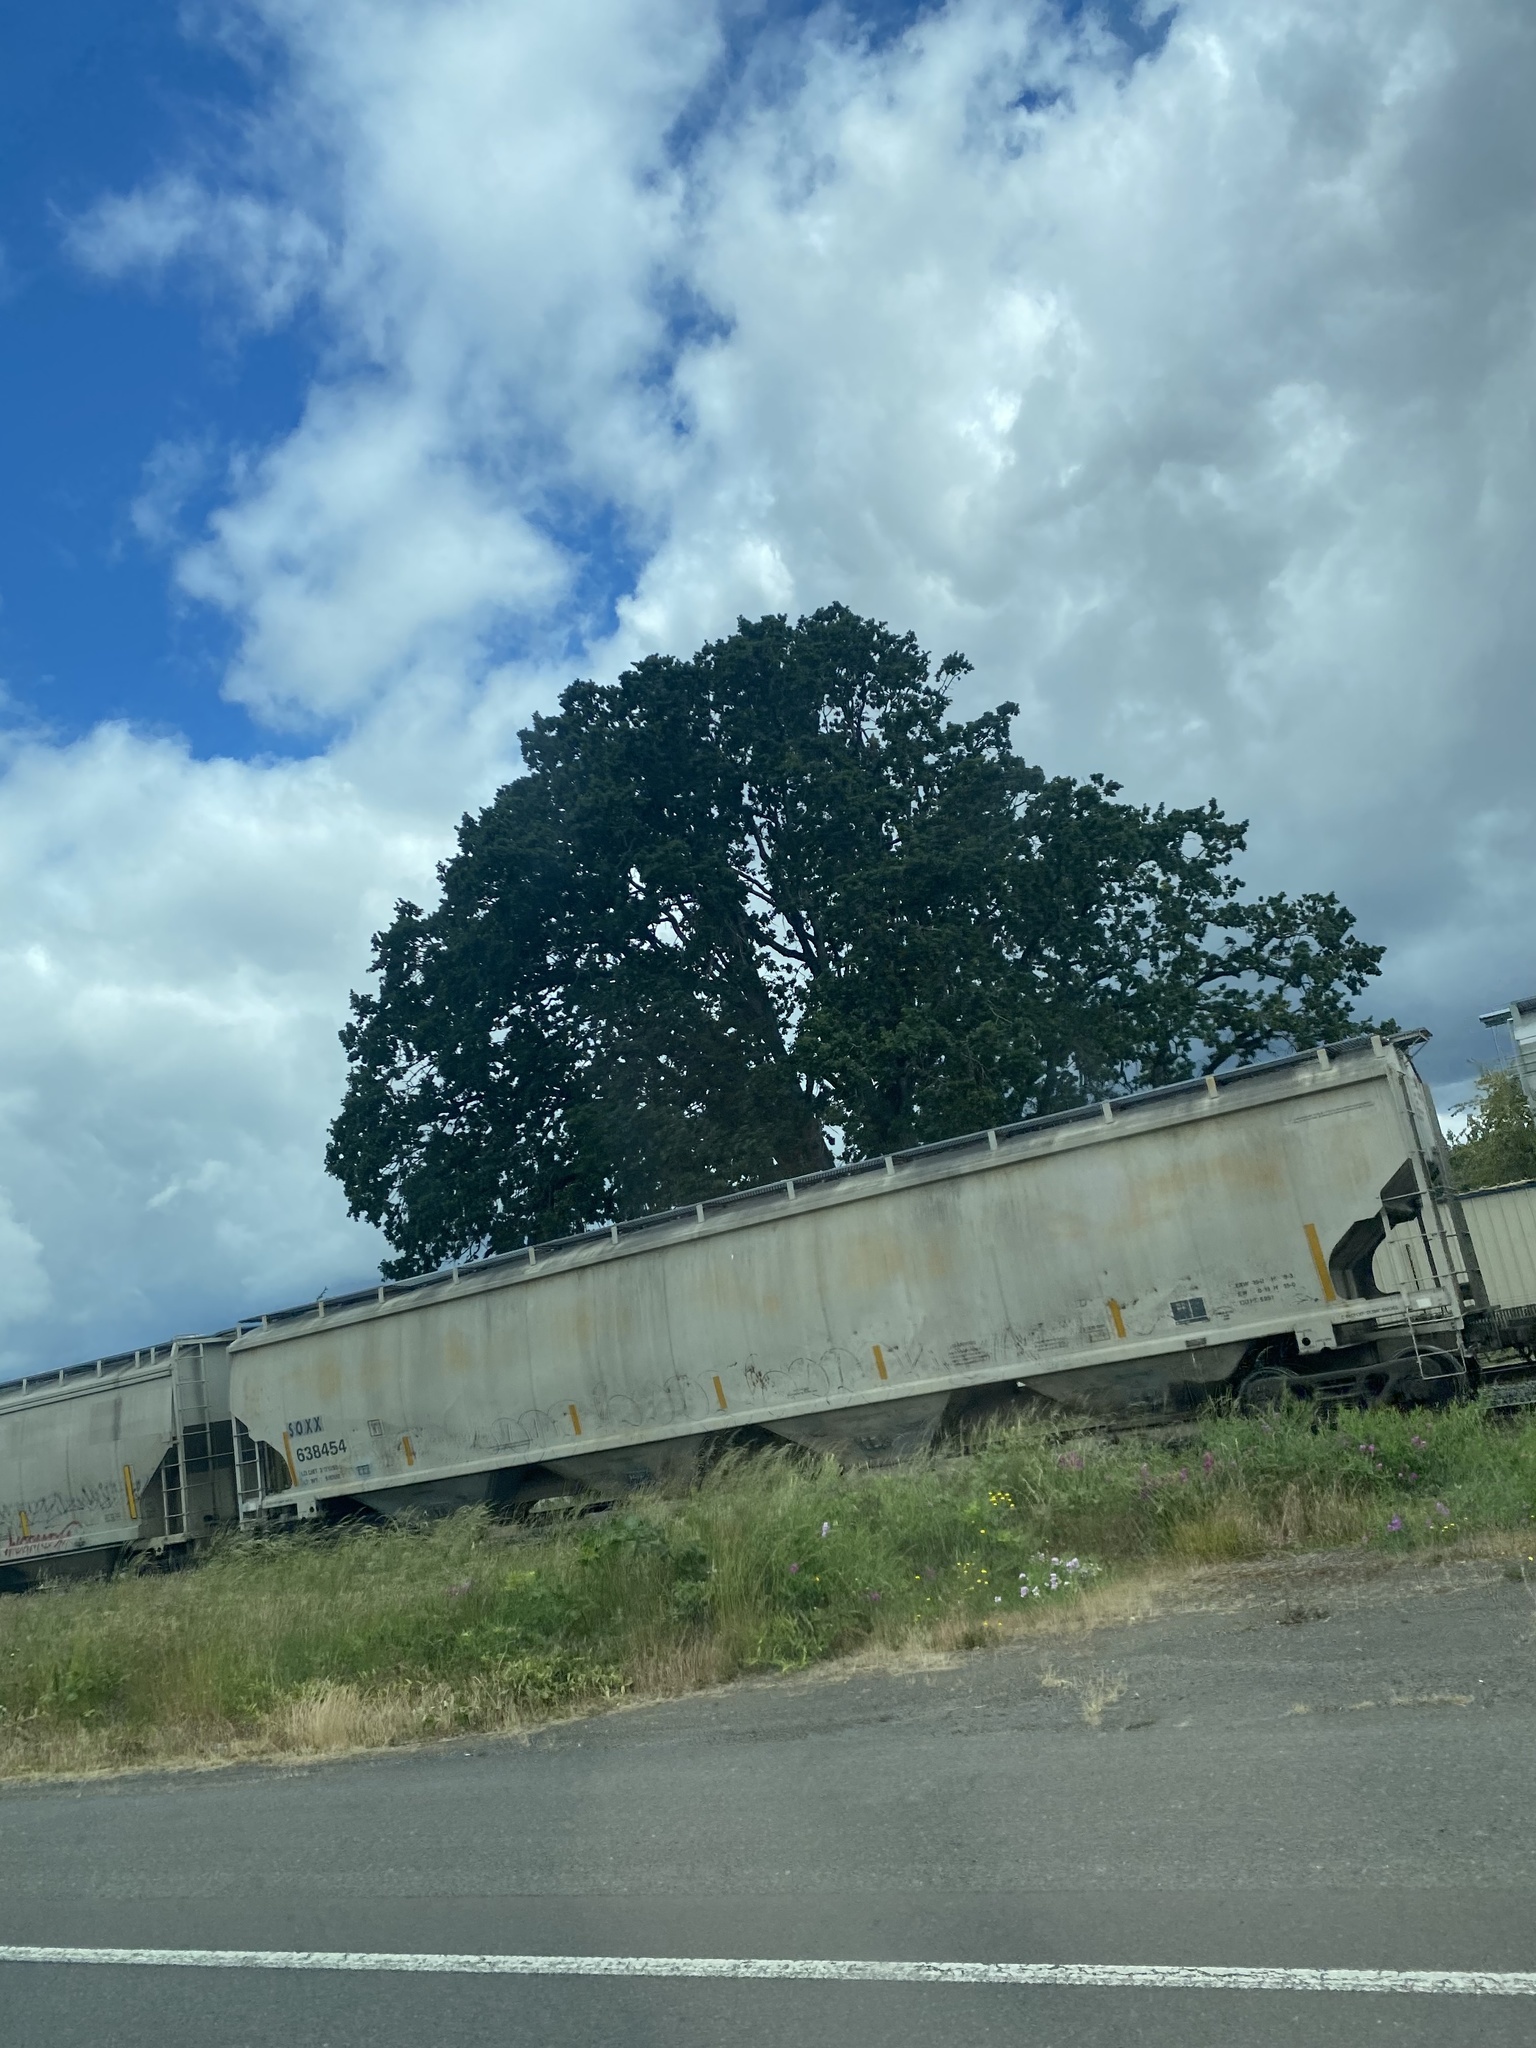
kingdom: Plantae
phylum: Tracheophyta
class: Magnoliopsida
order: Fagales
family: Fagaceae
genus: Quercus
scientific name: Quercus garryana
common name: Garry oak
